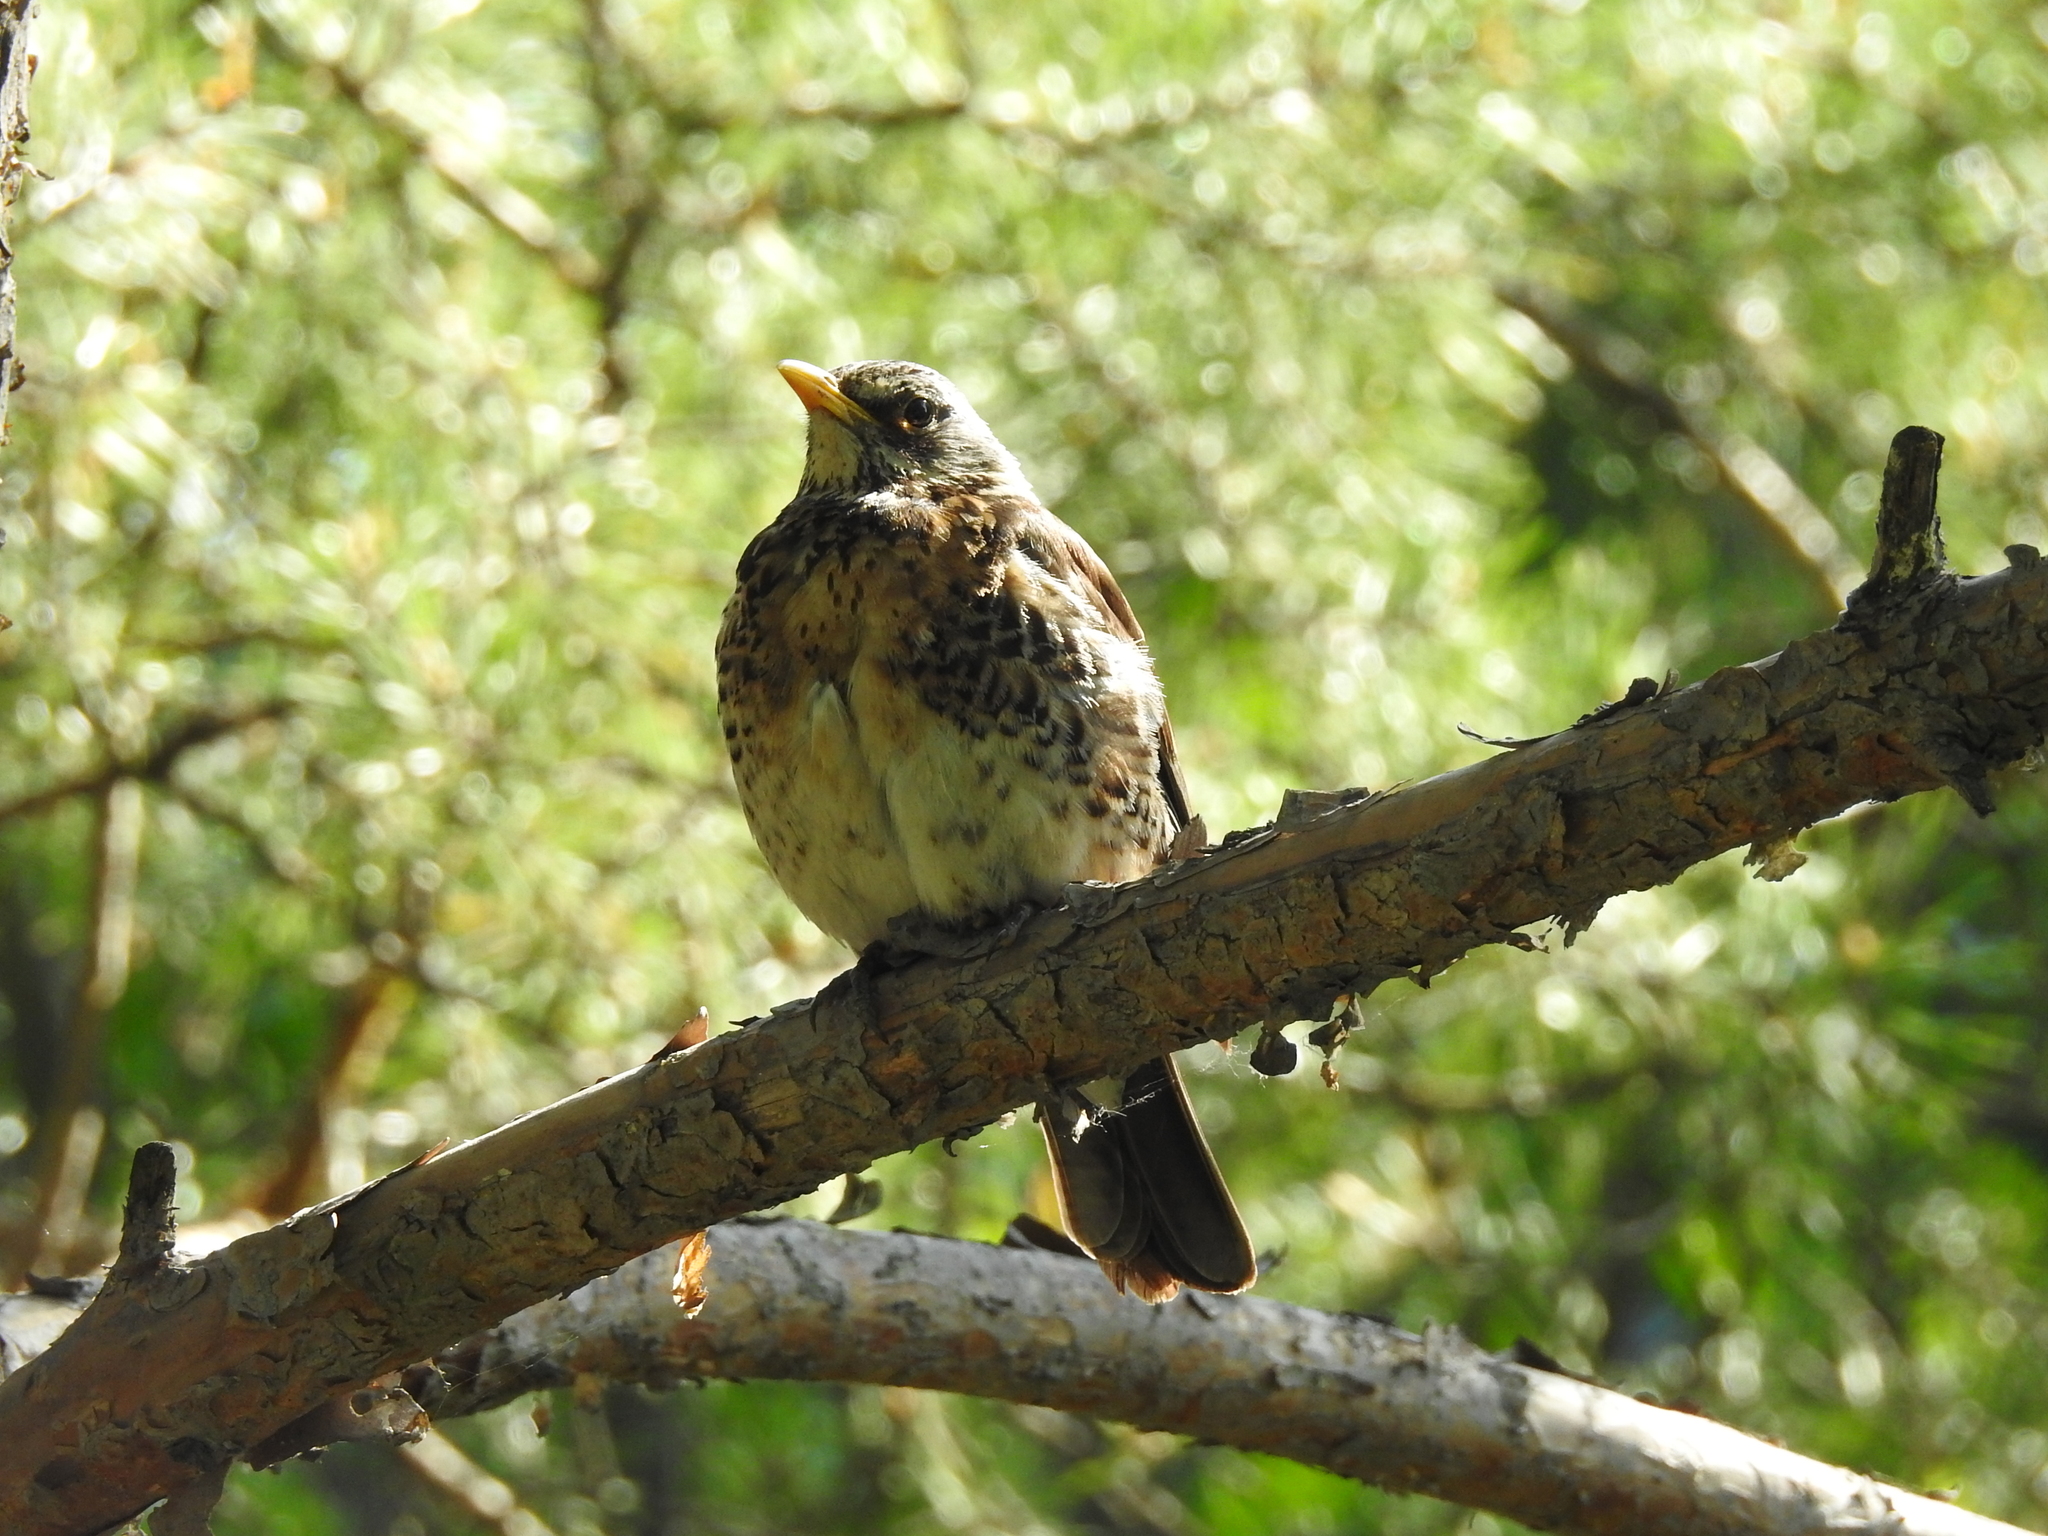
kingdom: Animalia
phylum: Chordata
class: Aves
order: Passeriformes
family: Turdidae
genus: Turdus
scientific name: Turdus pilaris
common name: Fieldfare
